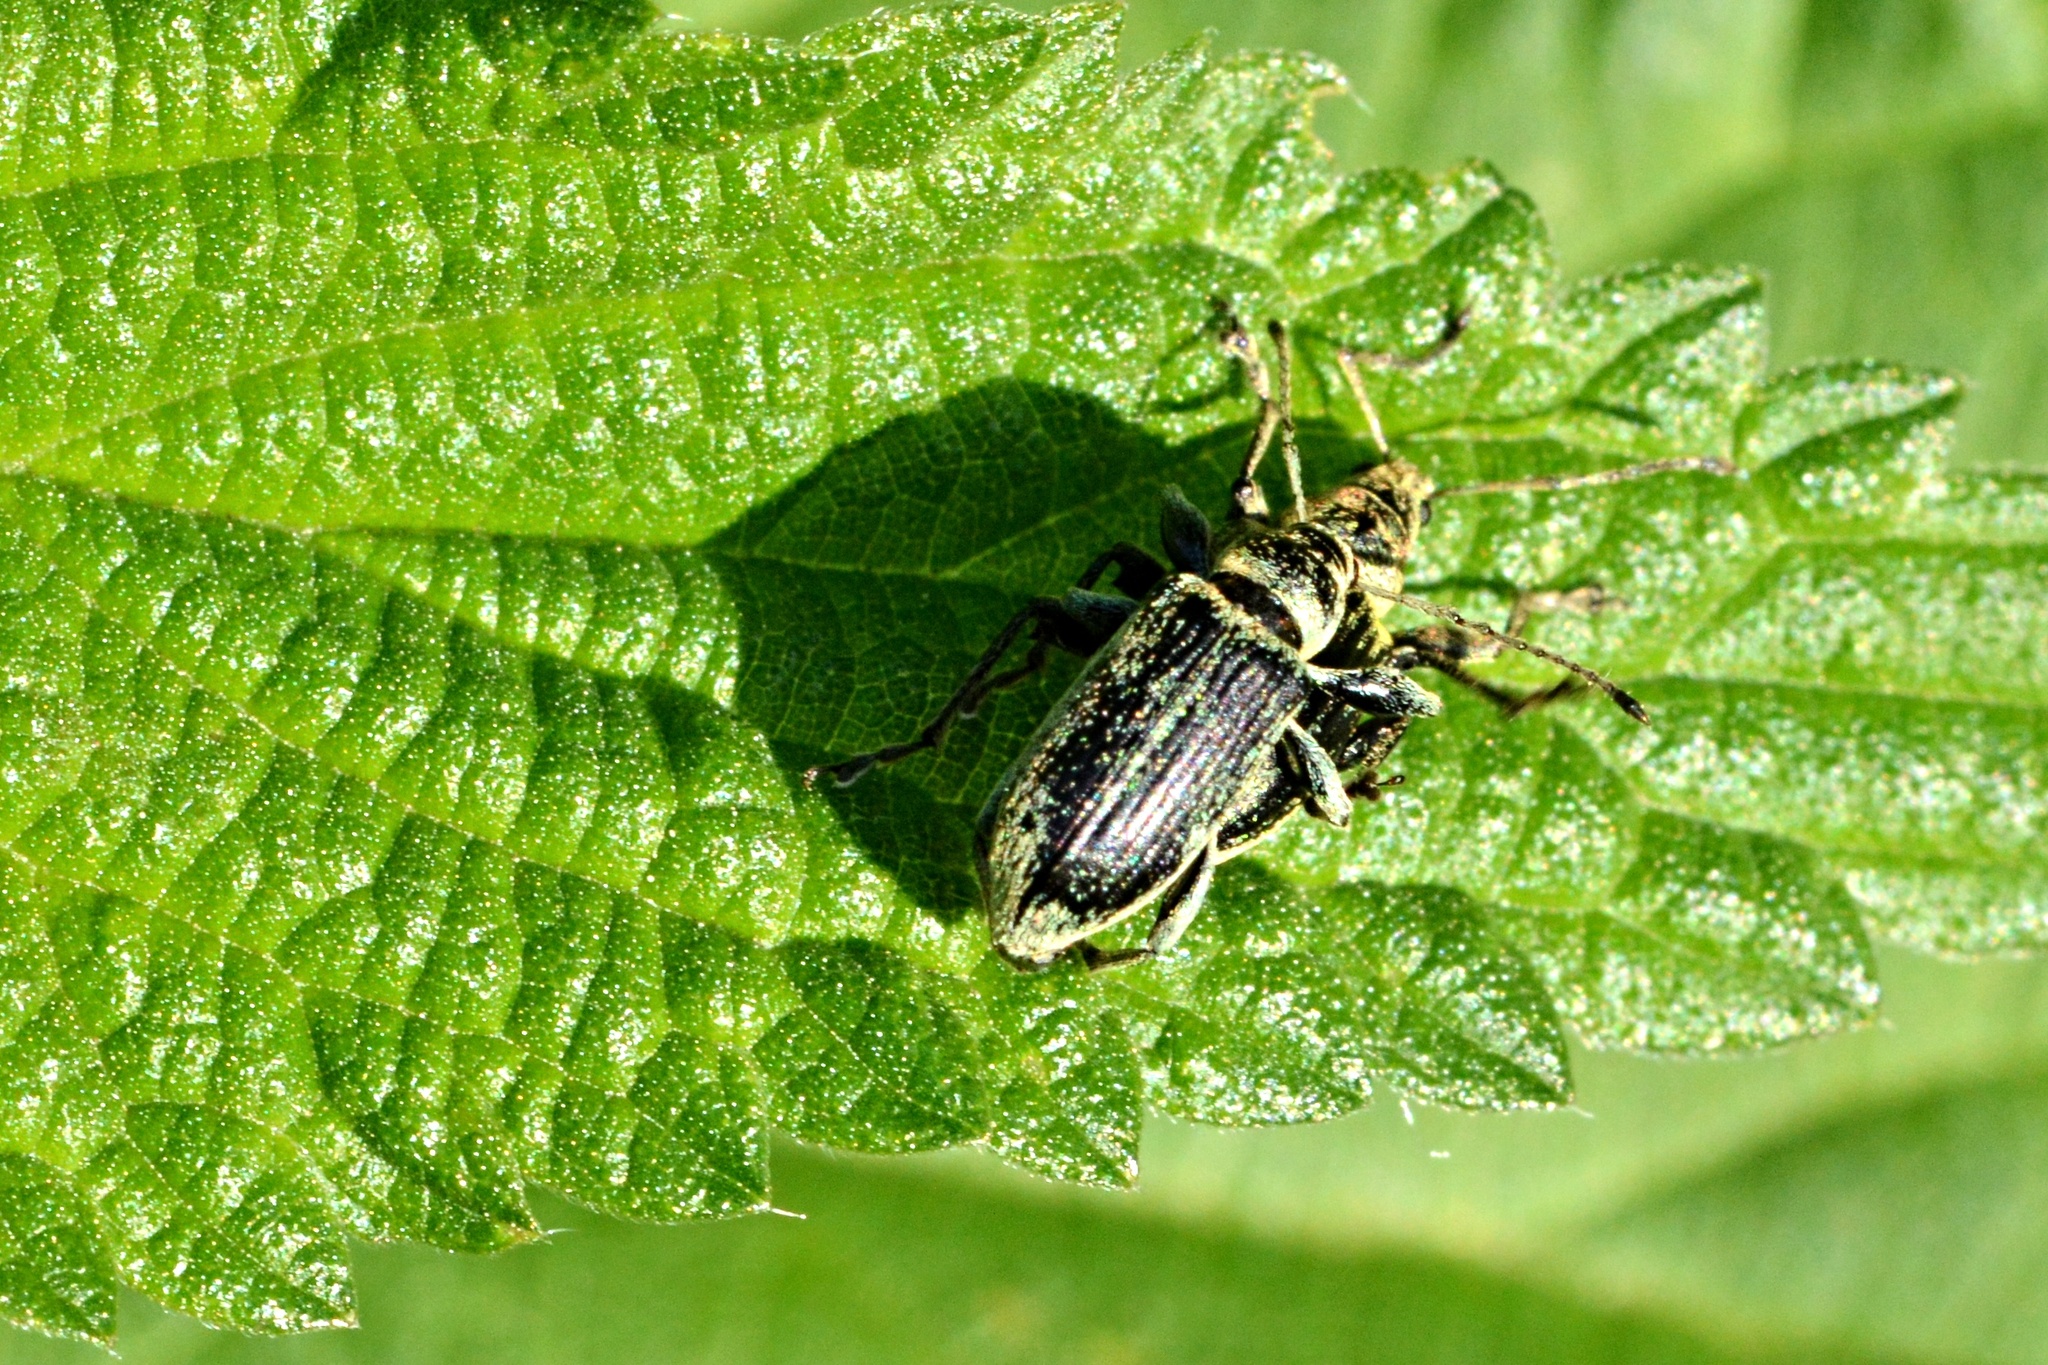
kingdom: Animalia
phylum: Arthropoda
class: Insecta
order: Coleoptera
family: Curculionidae
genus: Phyllobius
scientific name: Phyllobius pomaceus
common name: Green nettle weevil
